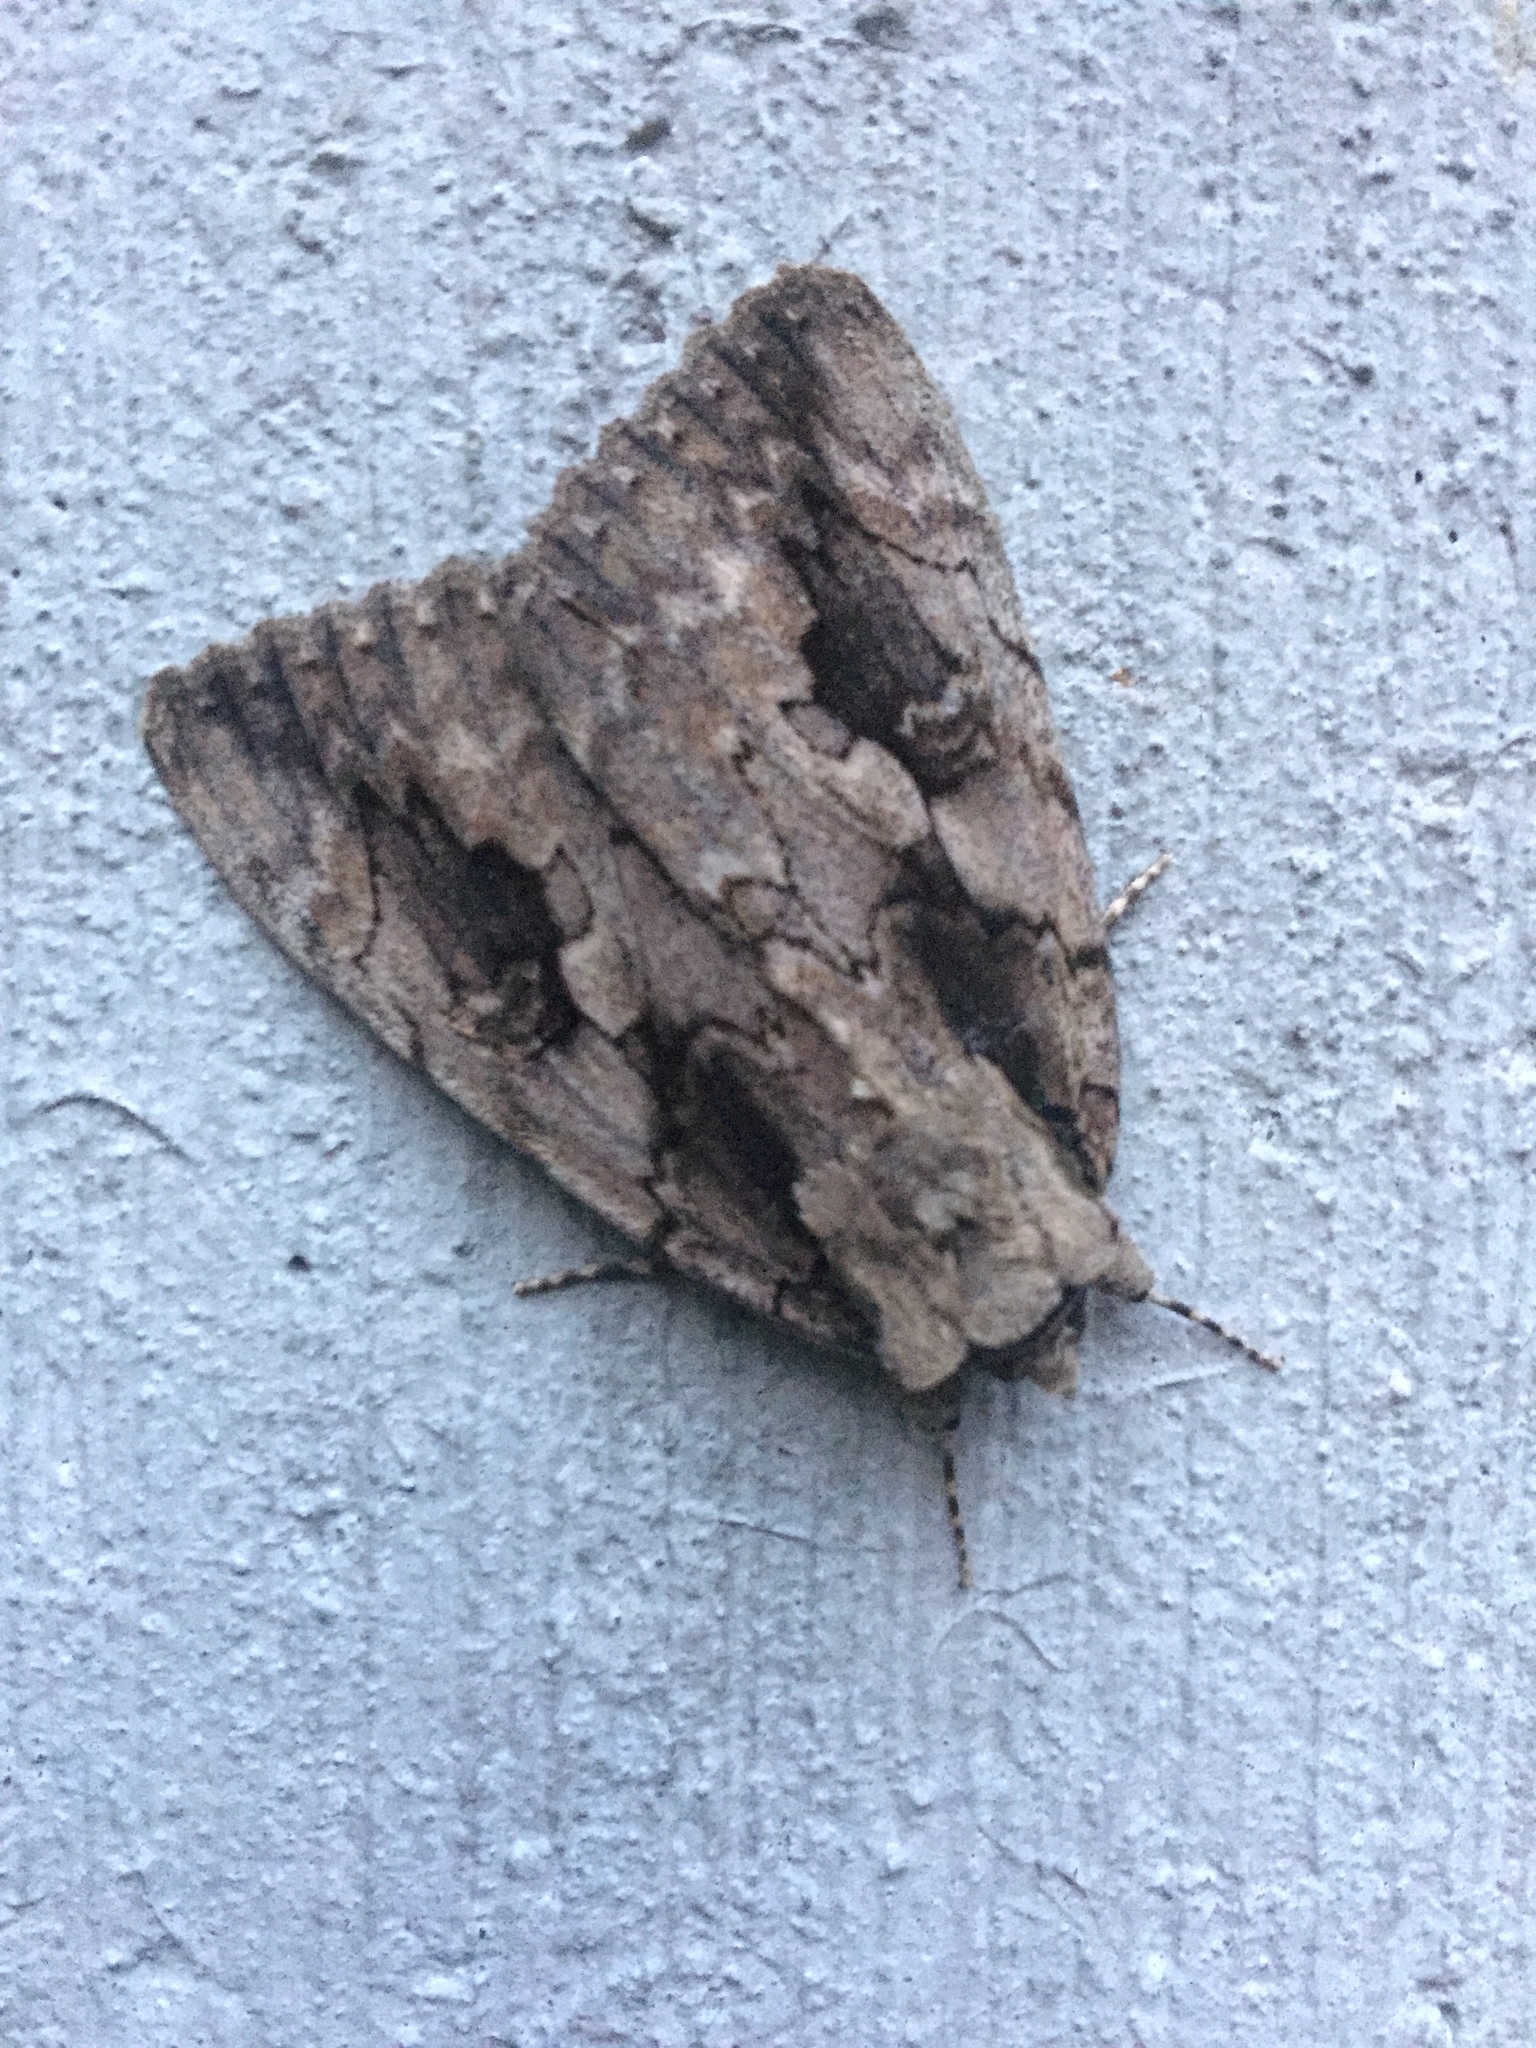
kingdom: Animalia
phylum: Arthropoda
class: Insecta
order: Lepidoptera
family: Erebidae
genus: Catocala
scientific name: Catocala amatrix
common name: Sweetheart underwing
